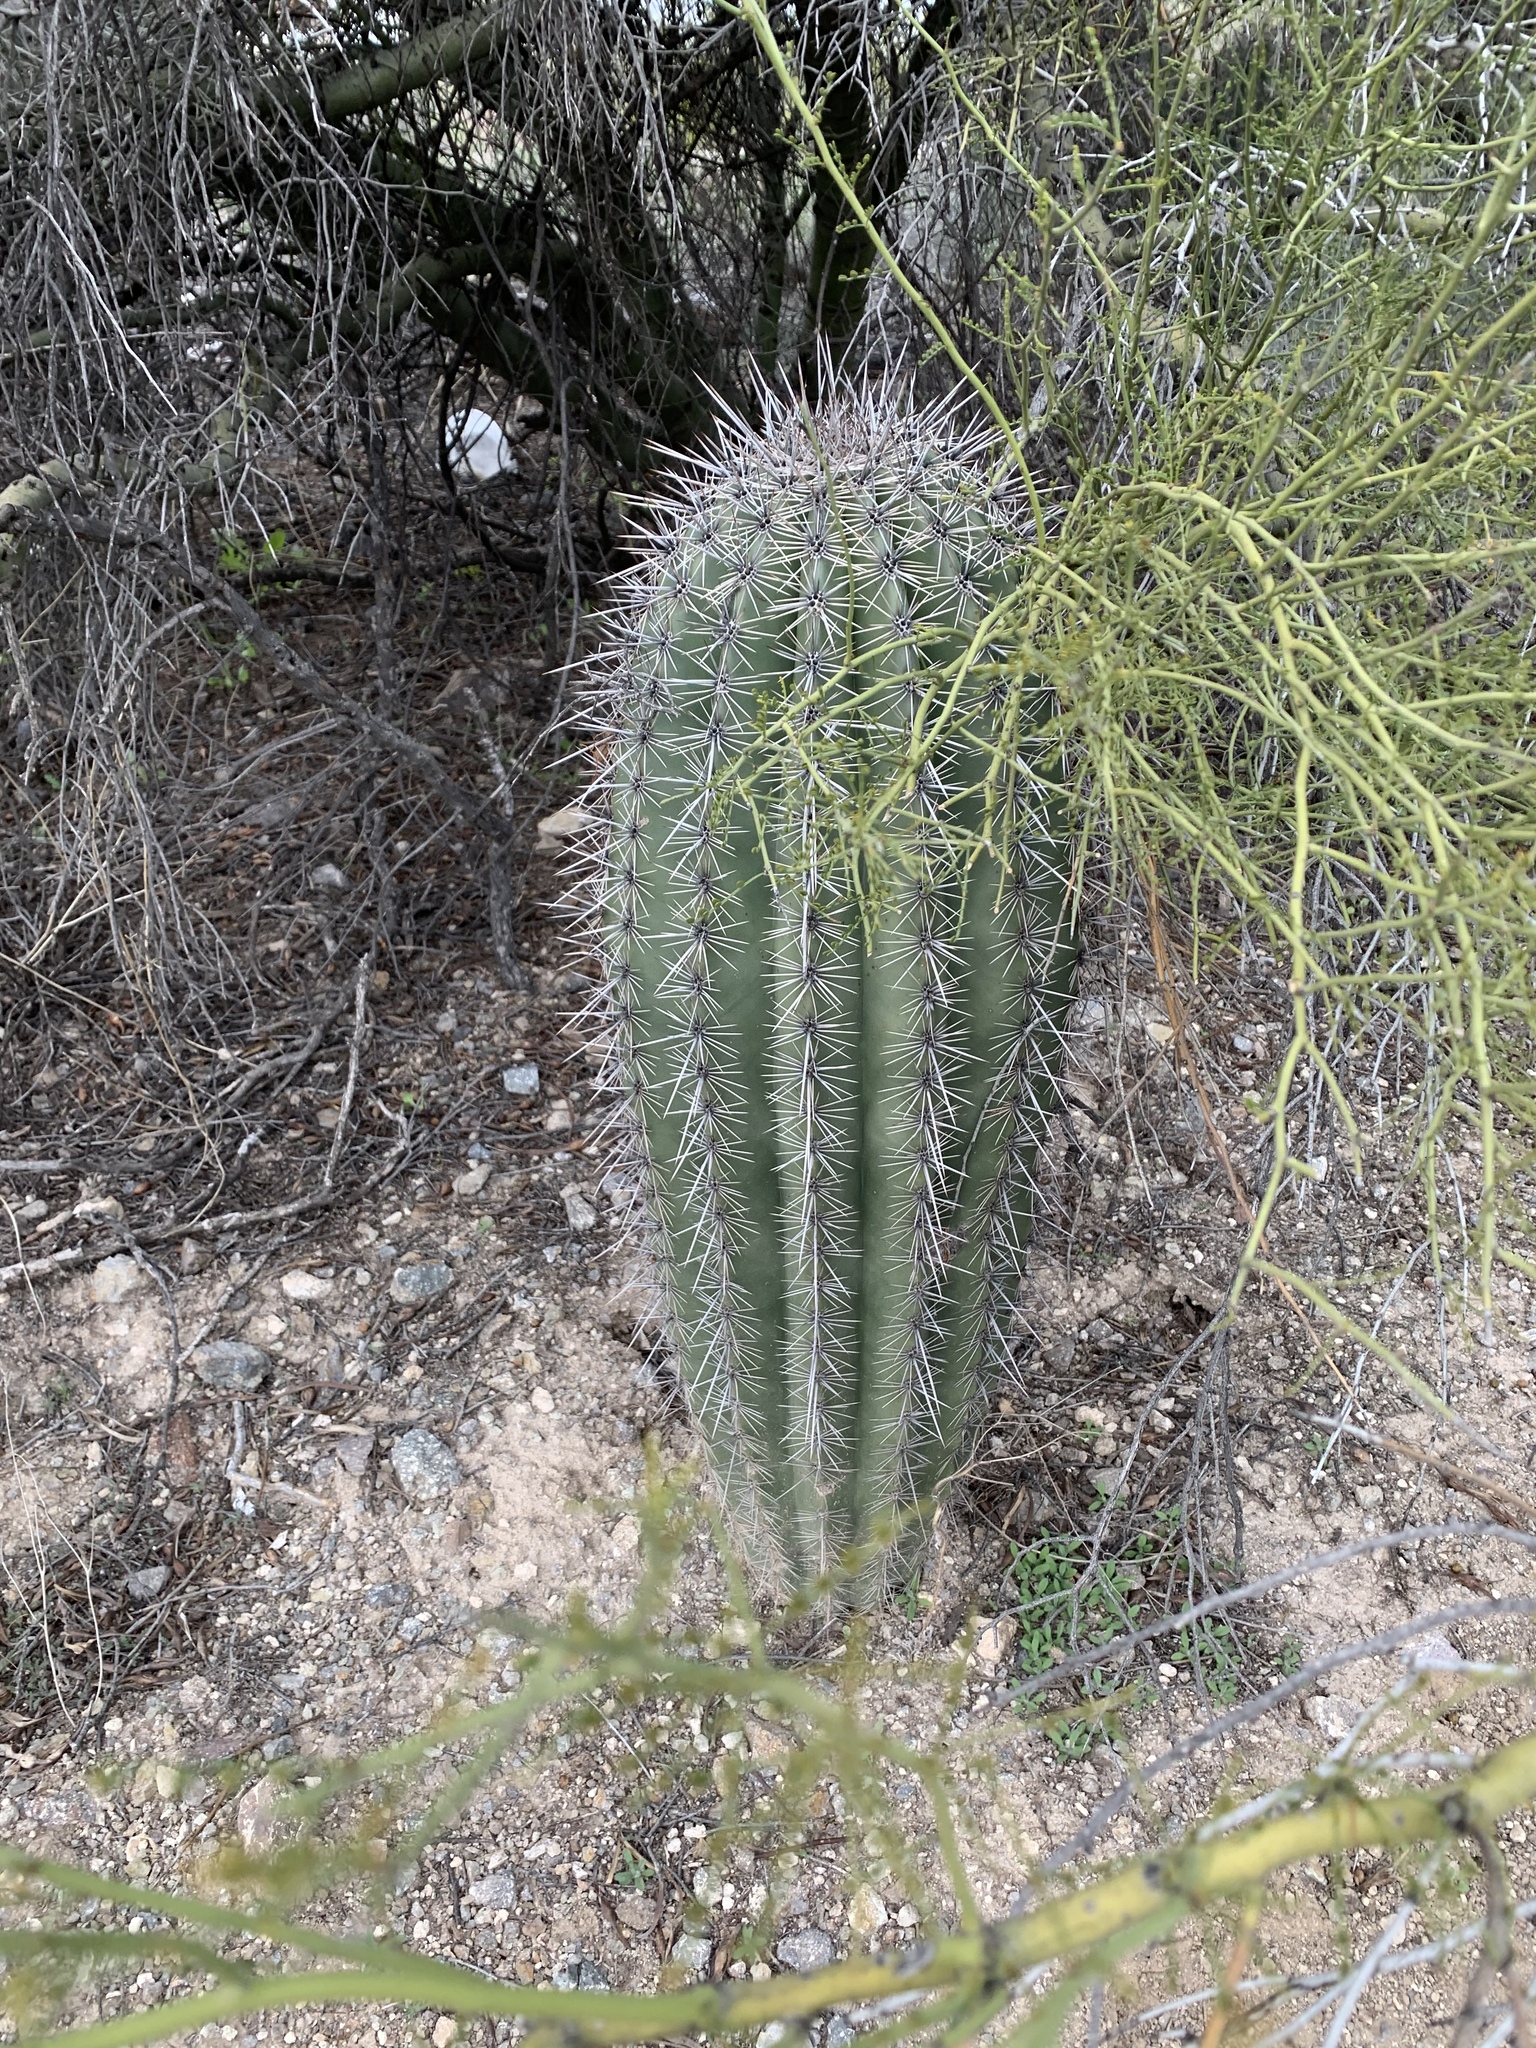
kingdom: Plantae
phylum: Tracheophyta
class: Magnoliopsida
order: Caryophyllales
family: Cactaceae
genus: Carnegiea
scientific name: Carnegiea gigantea
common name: Saguaro
